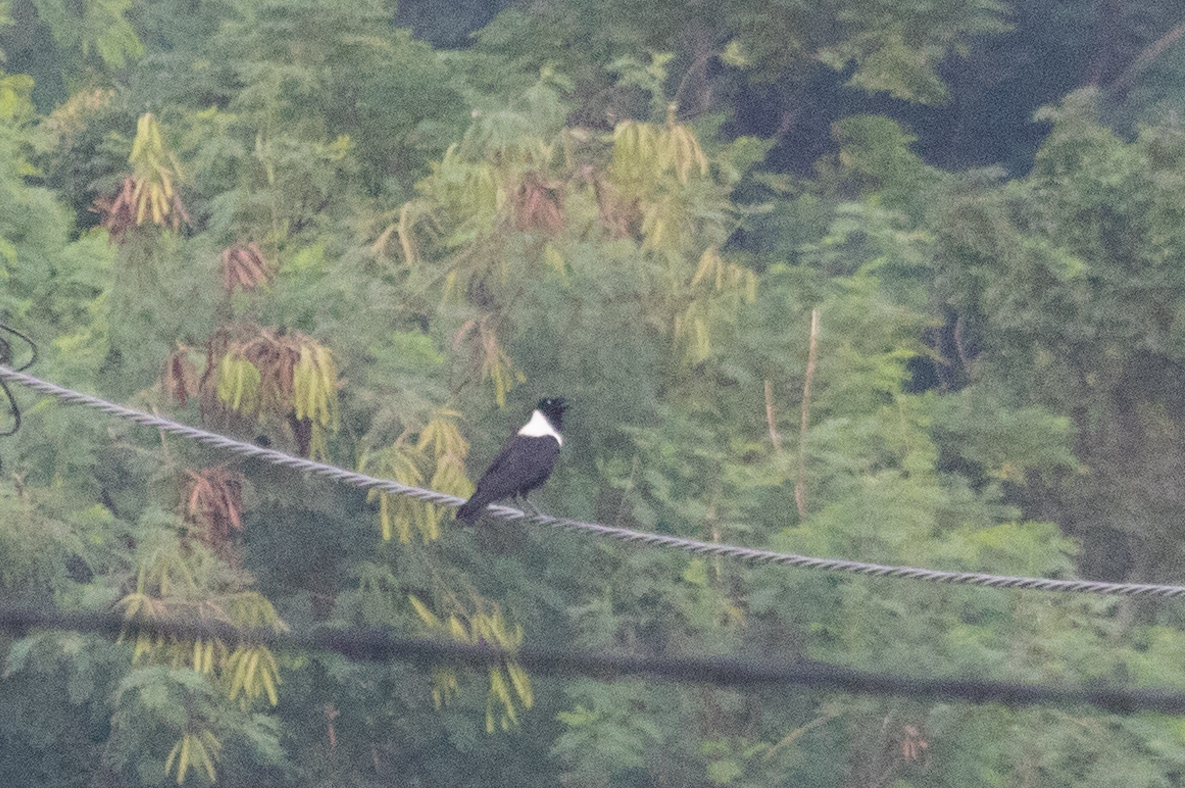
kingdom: Animalia
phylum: Chordata
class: Aves
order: Passeriformes
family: Corvidae
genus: Corvus
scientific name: Corvus pectoralis
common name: Collared crow
